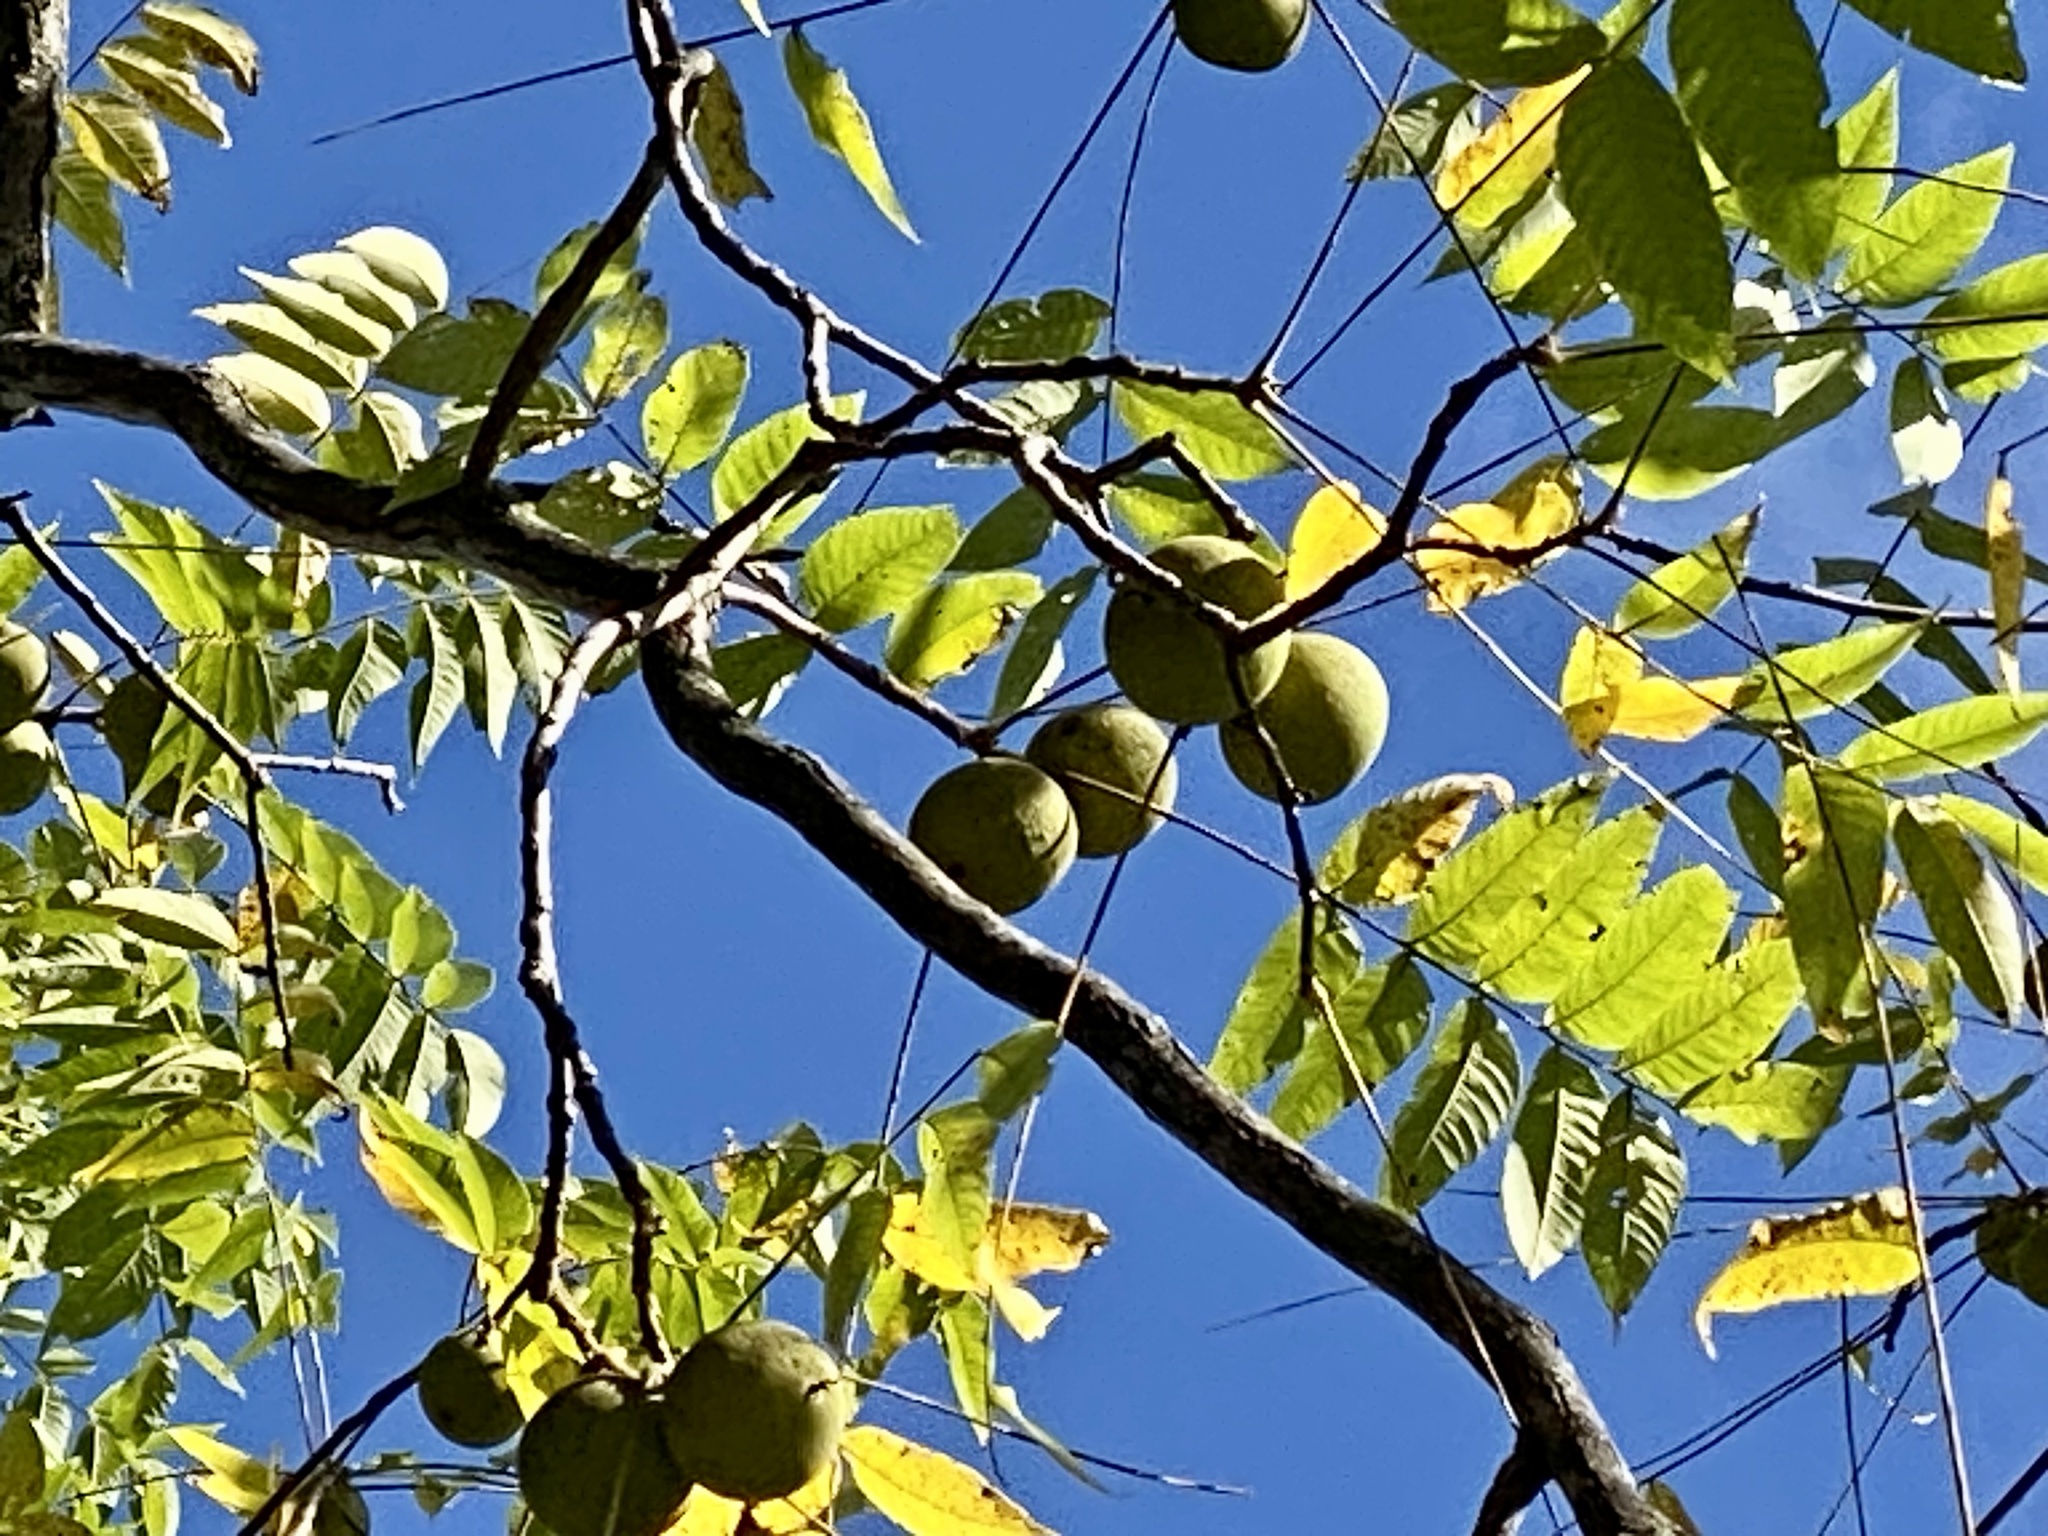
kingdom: Plantae
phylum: Tracheophyta
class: Magnoliopsida
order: Fagales
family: Juglandaceae
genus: Juglans
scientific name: Juglans nigra
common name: Black walnut
